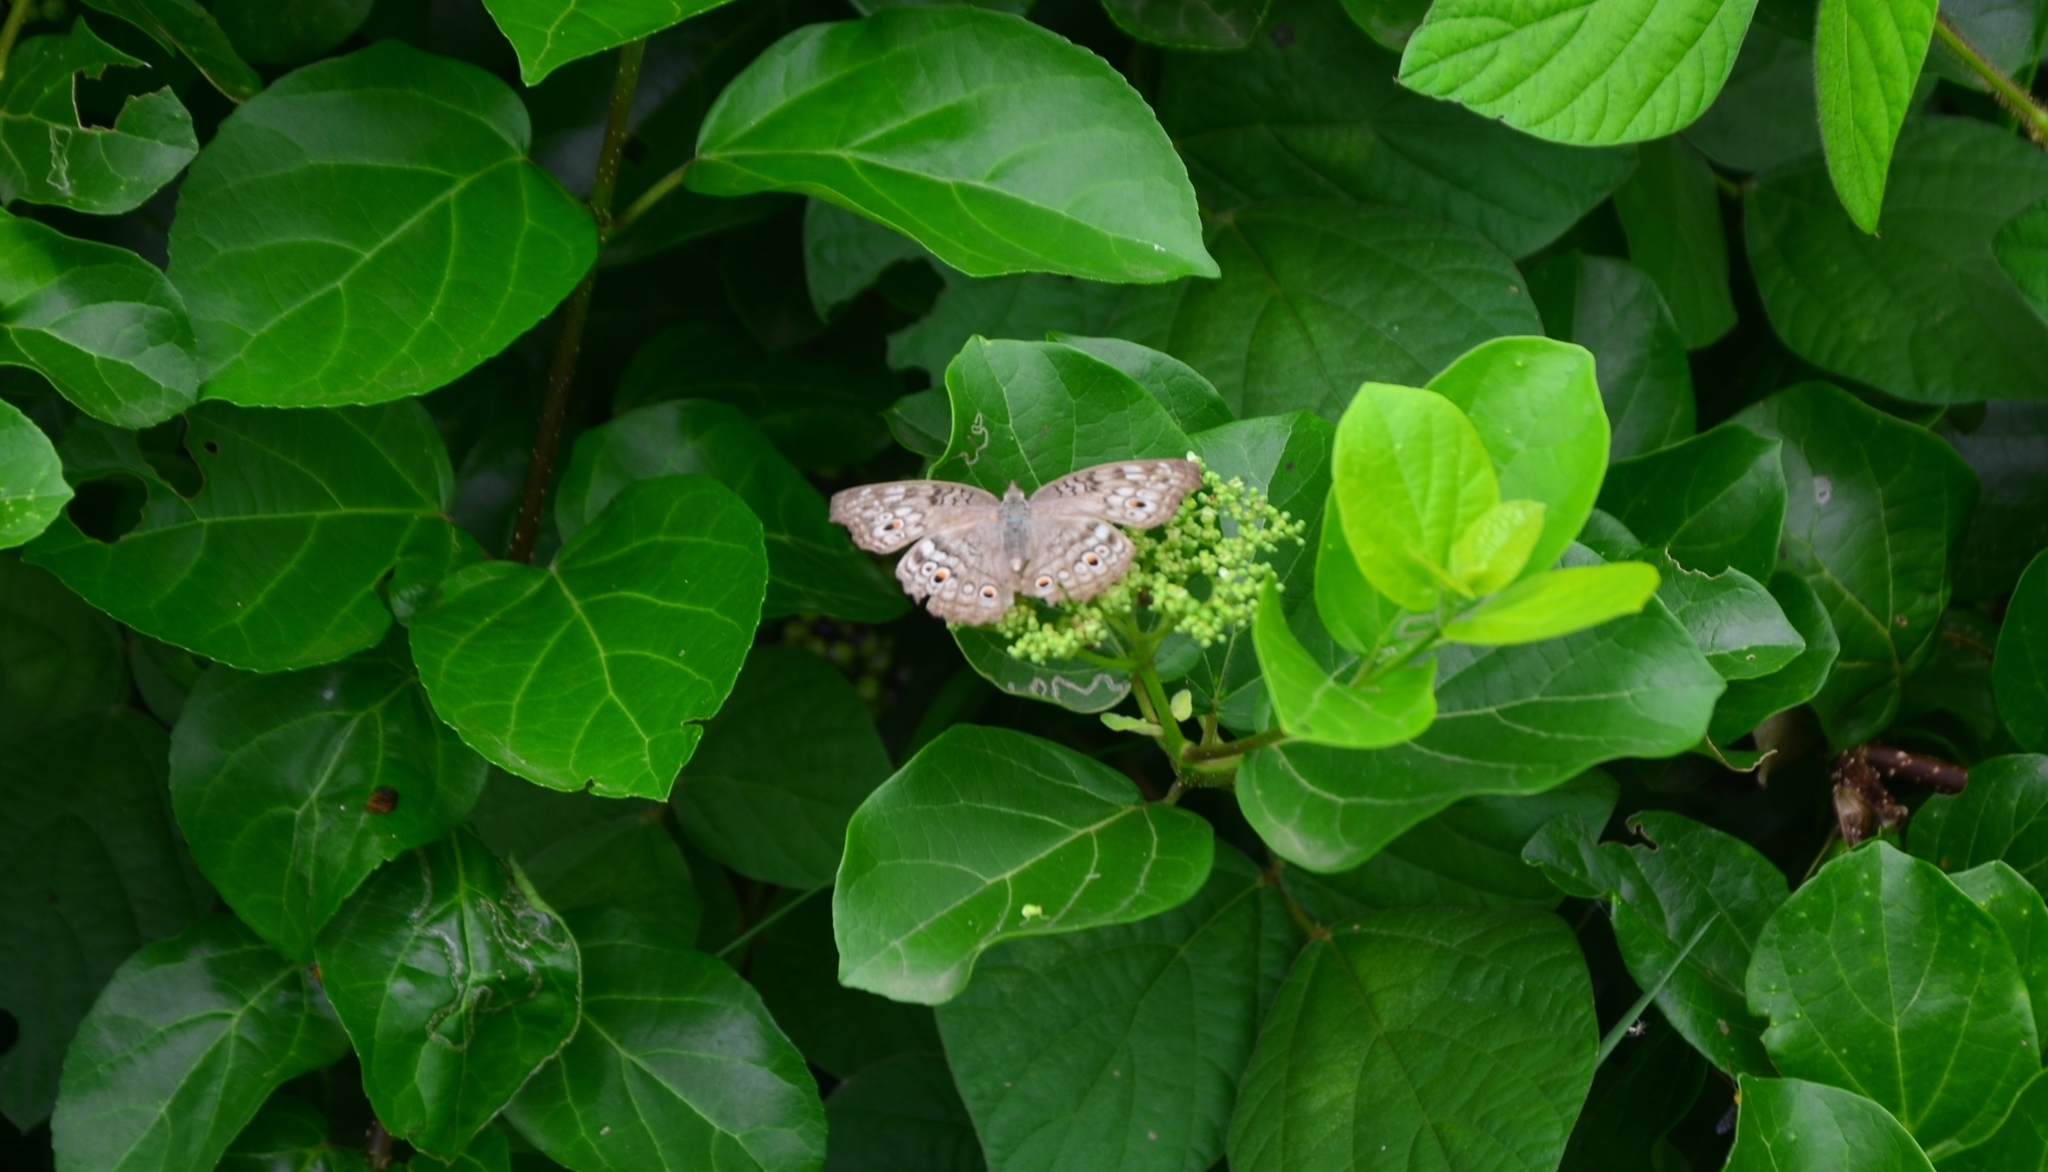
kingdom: Animalia
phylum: Arthropoda
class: Insecta
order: Lepidoptera
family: Nymphalidae
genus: Junonia
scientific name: Junonia atlites
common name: Grey pansy
